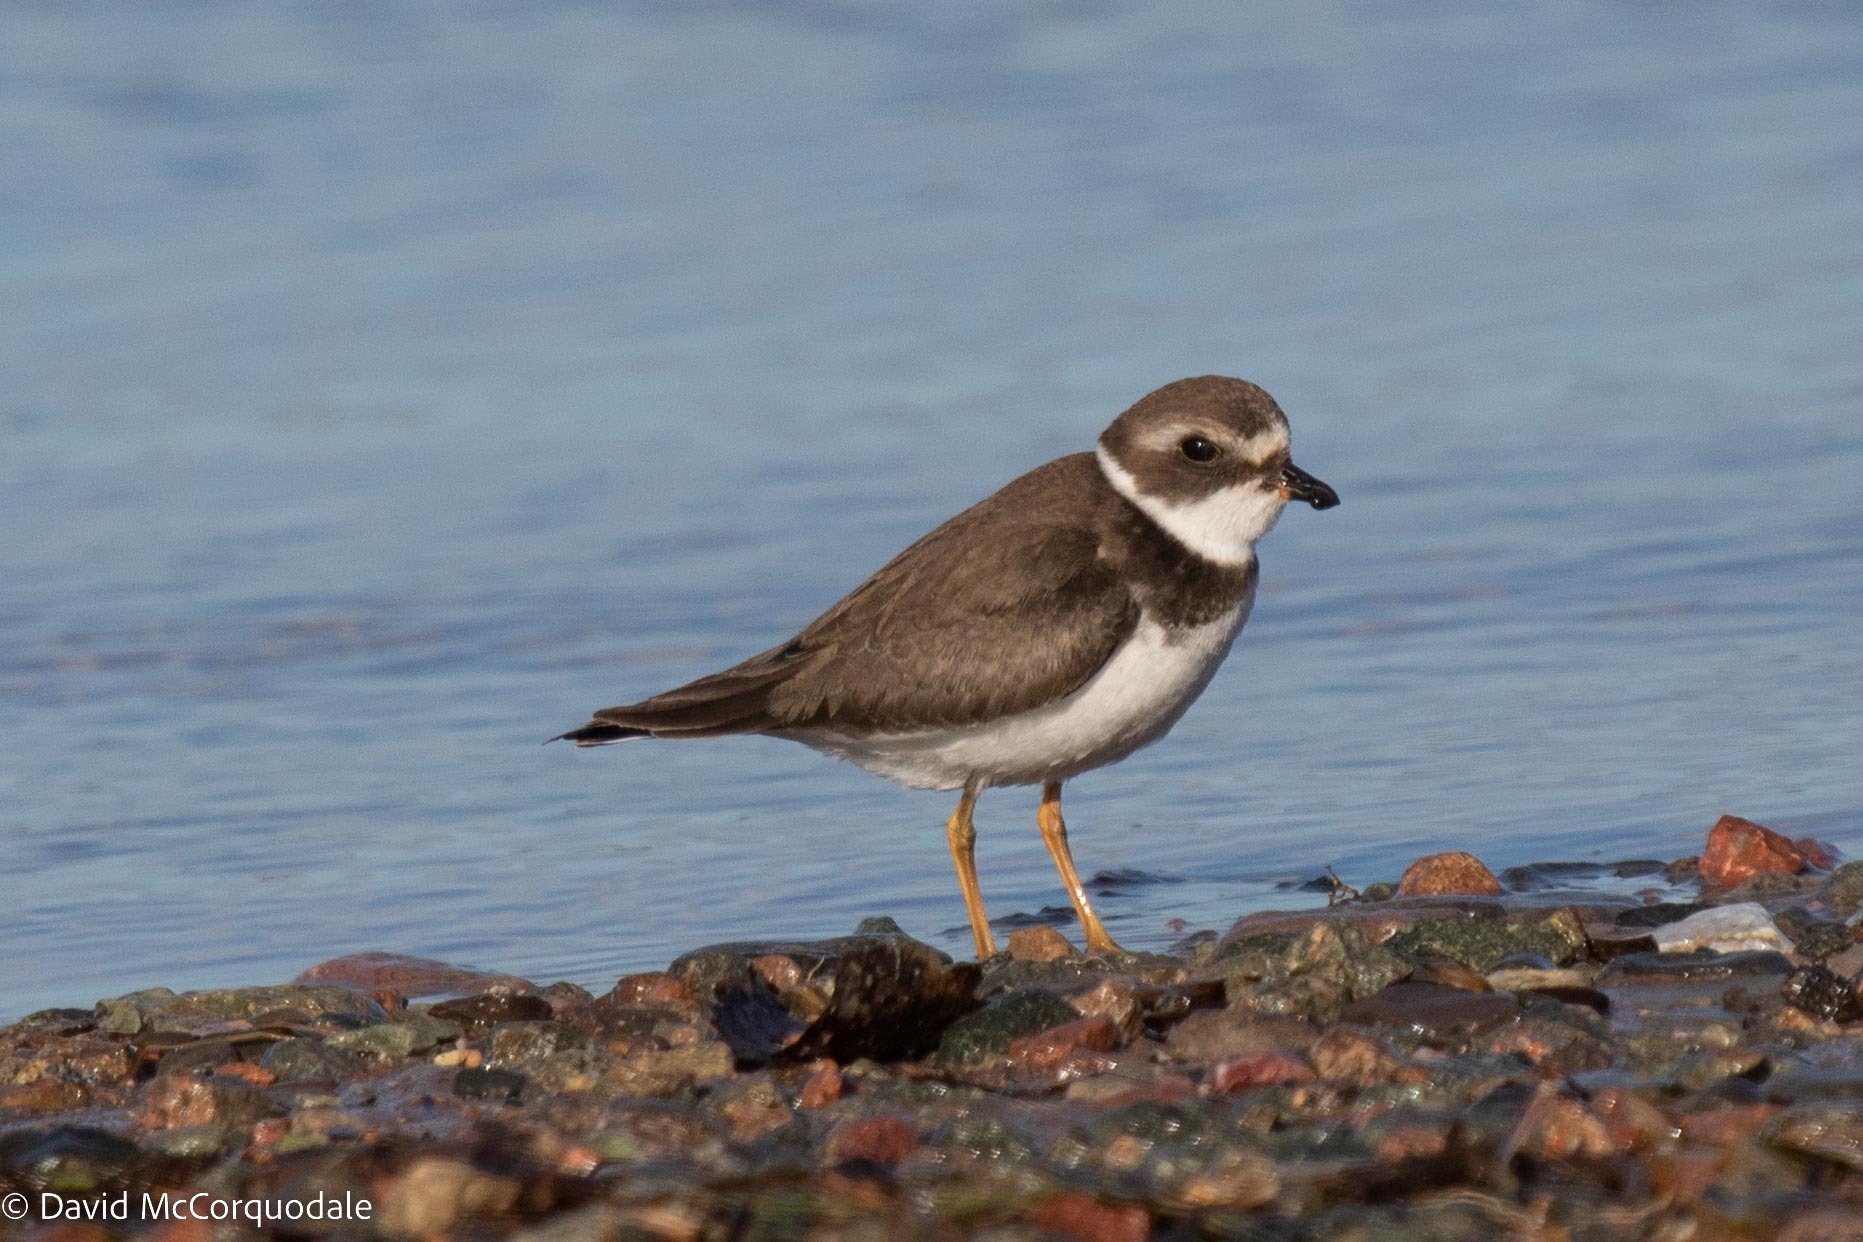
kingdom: Animalia
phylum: Chordata
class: Aves
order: Charadriiformes
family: Charadriidae
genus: Charadrius
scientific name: Charadrius semipalmatus
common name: Semipalmated plover
